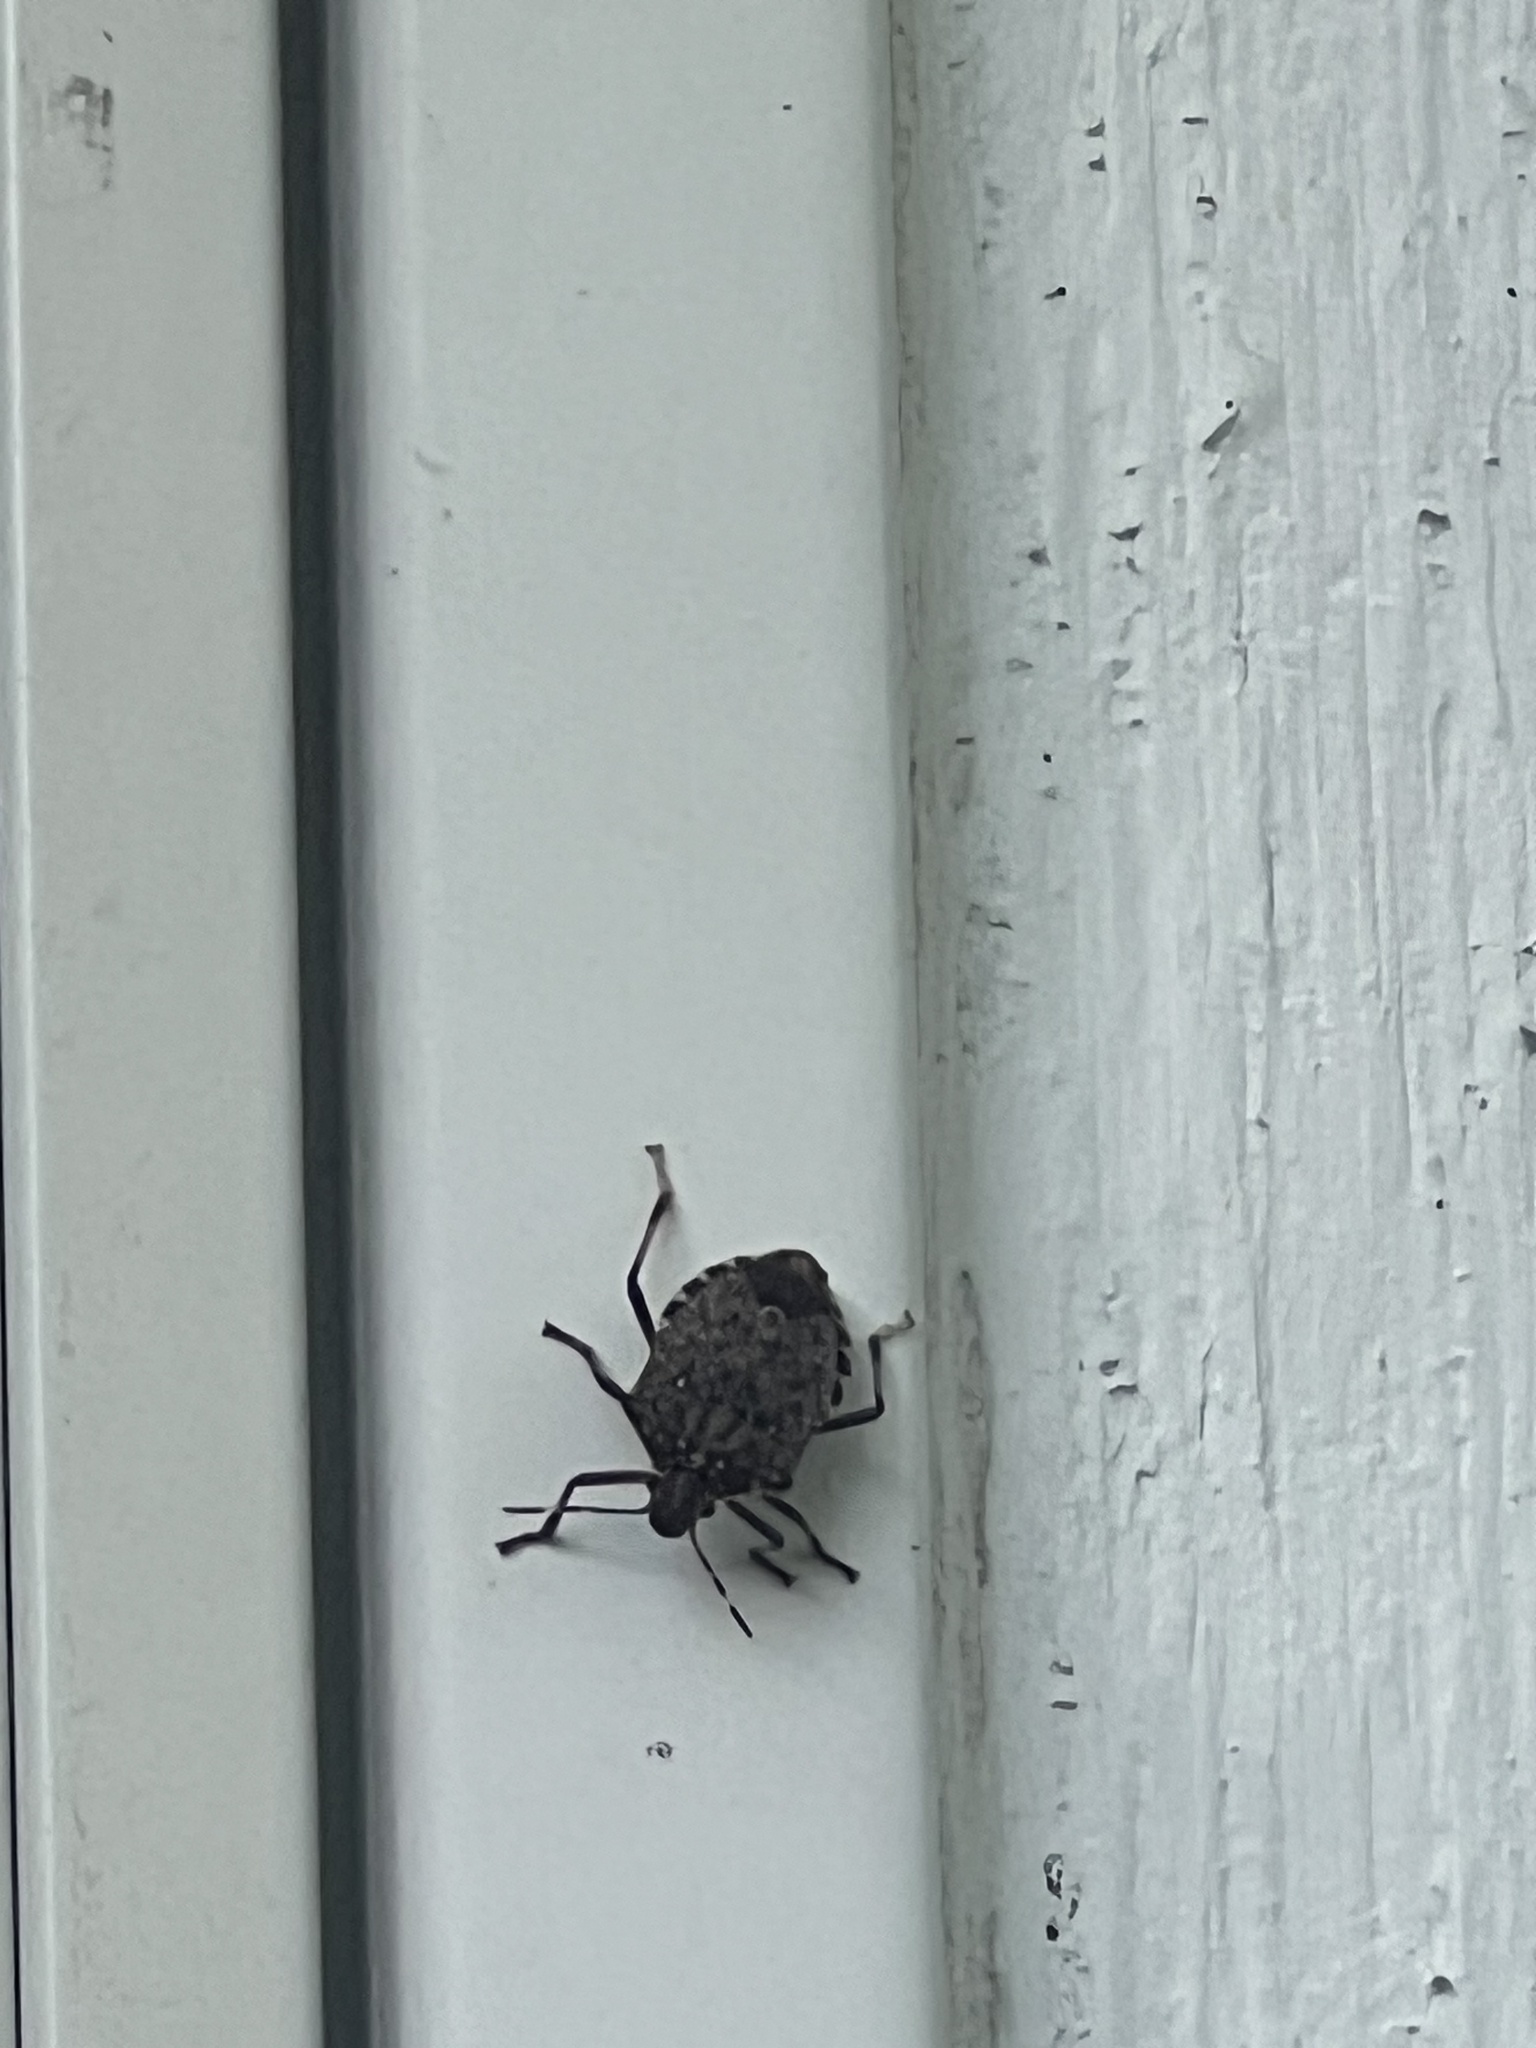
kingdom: Animalia
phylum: Arthropoda
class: Insecta
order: Hemiptera
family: Pentatomidae
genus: Halyomorpha
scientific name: Halyomorpha halys
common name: Brown marmorated stink bug
